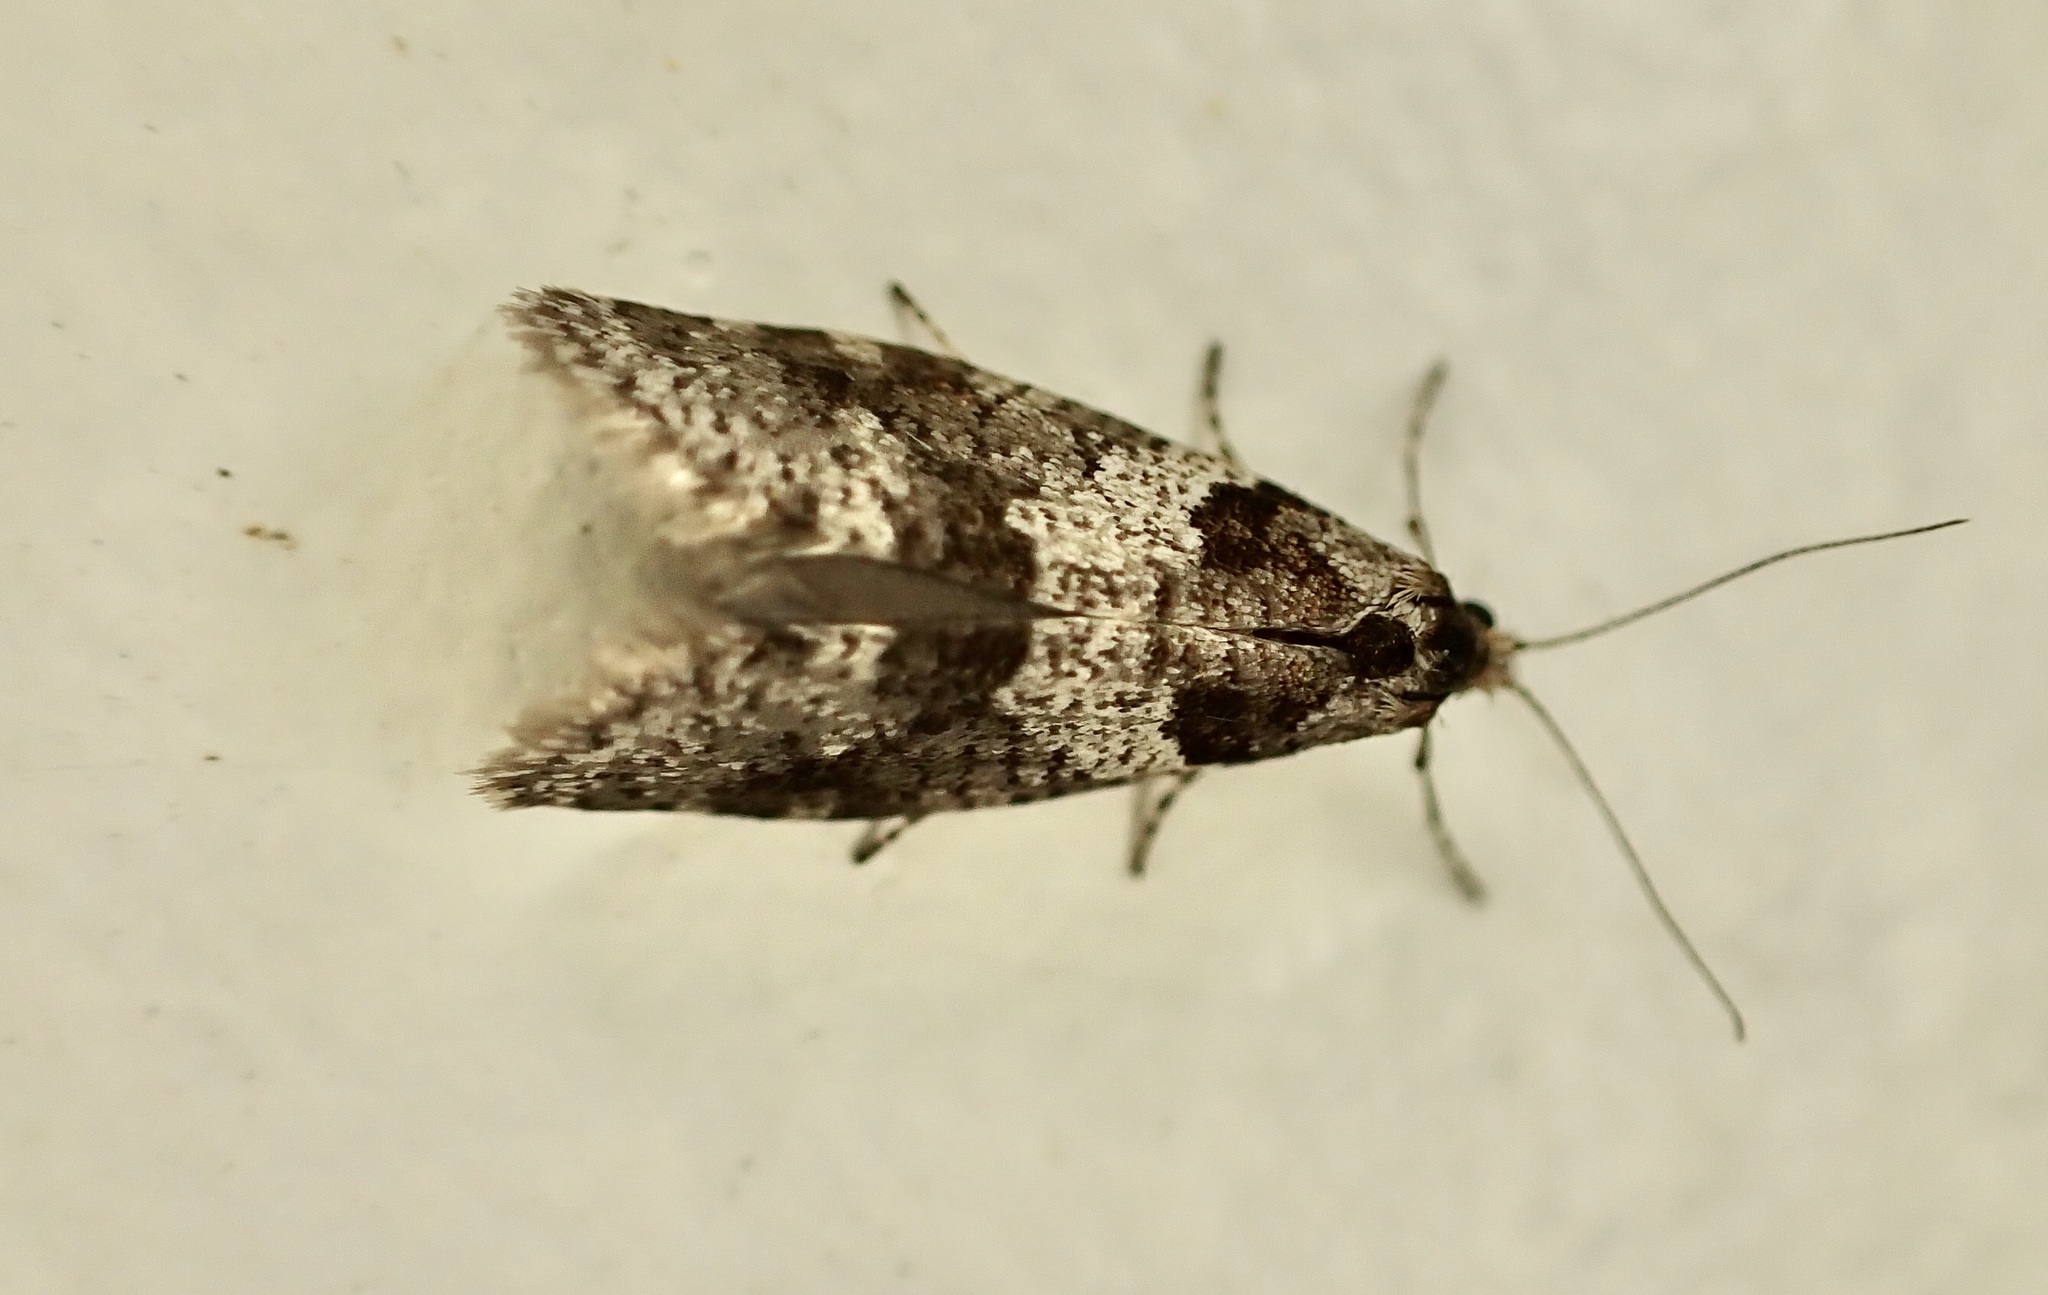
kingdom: Animalia
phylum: Arthropoda
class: Insecta
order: Lepidoptera
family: Psychidae
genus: Lepidoscia
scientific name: Lepidoscia heliochares
